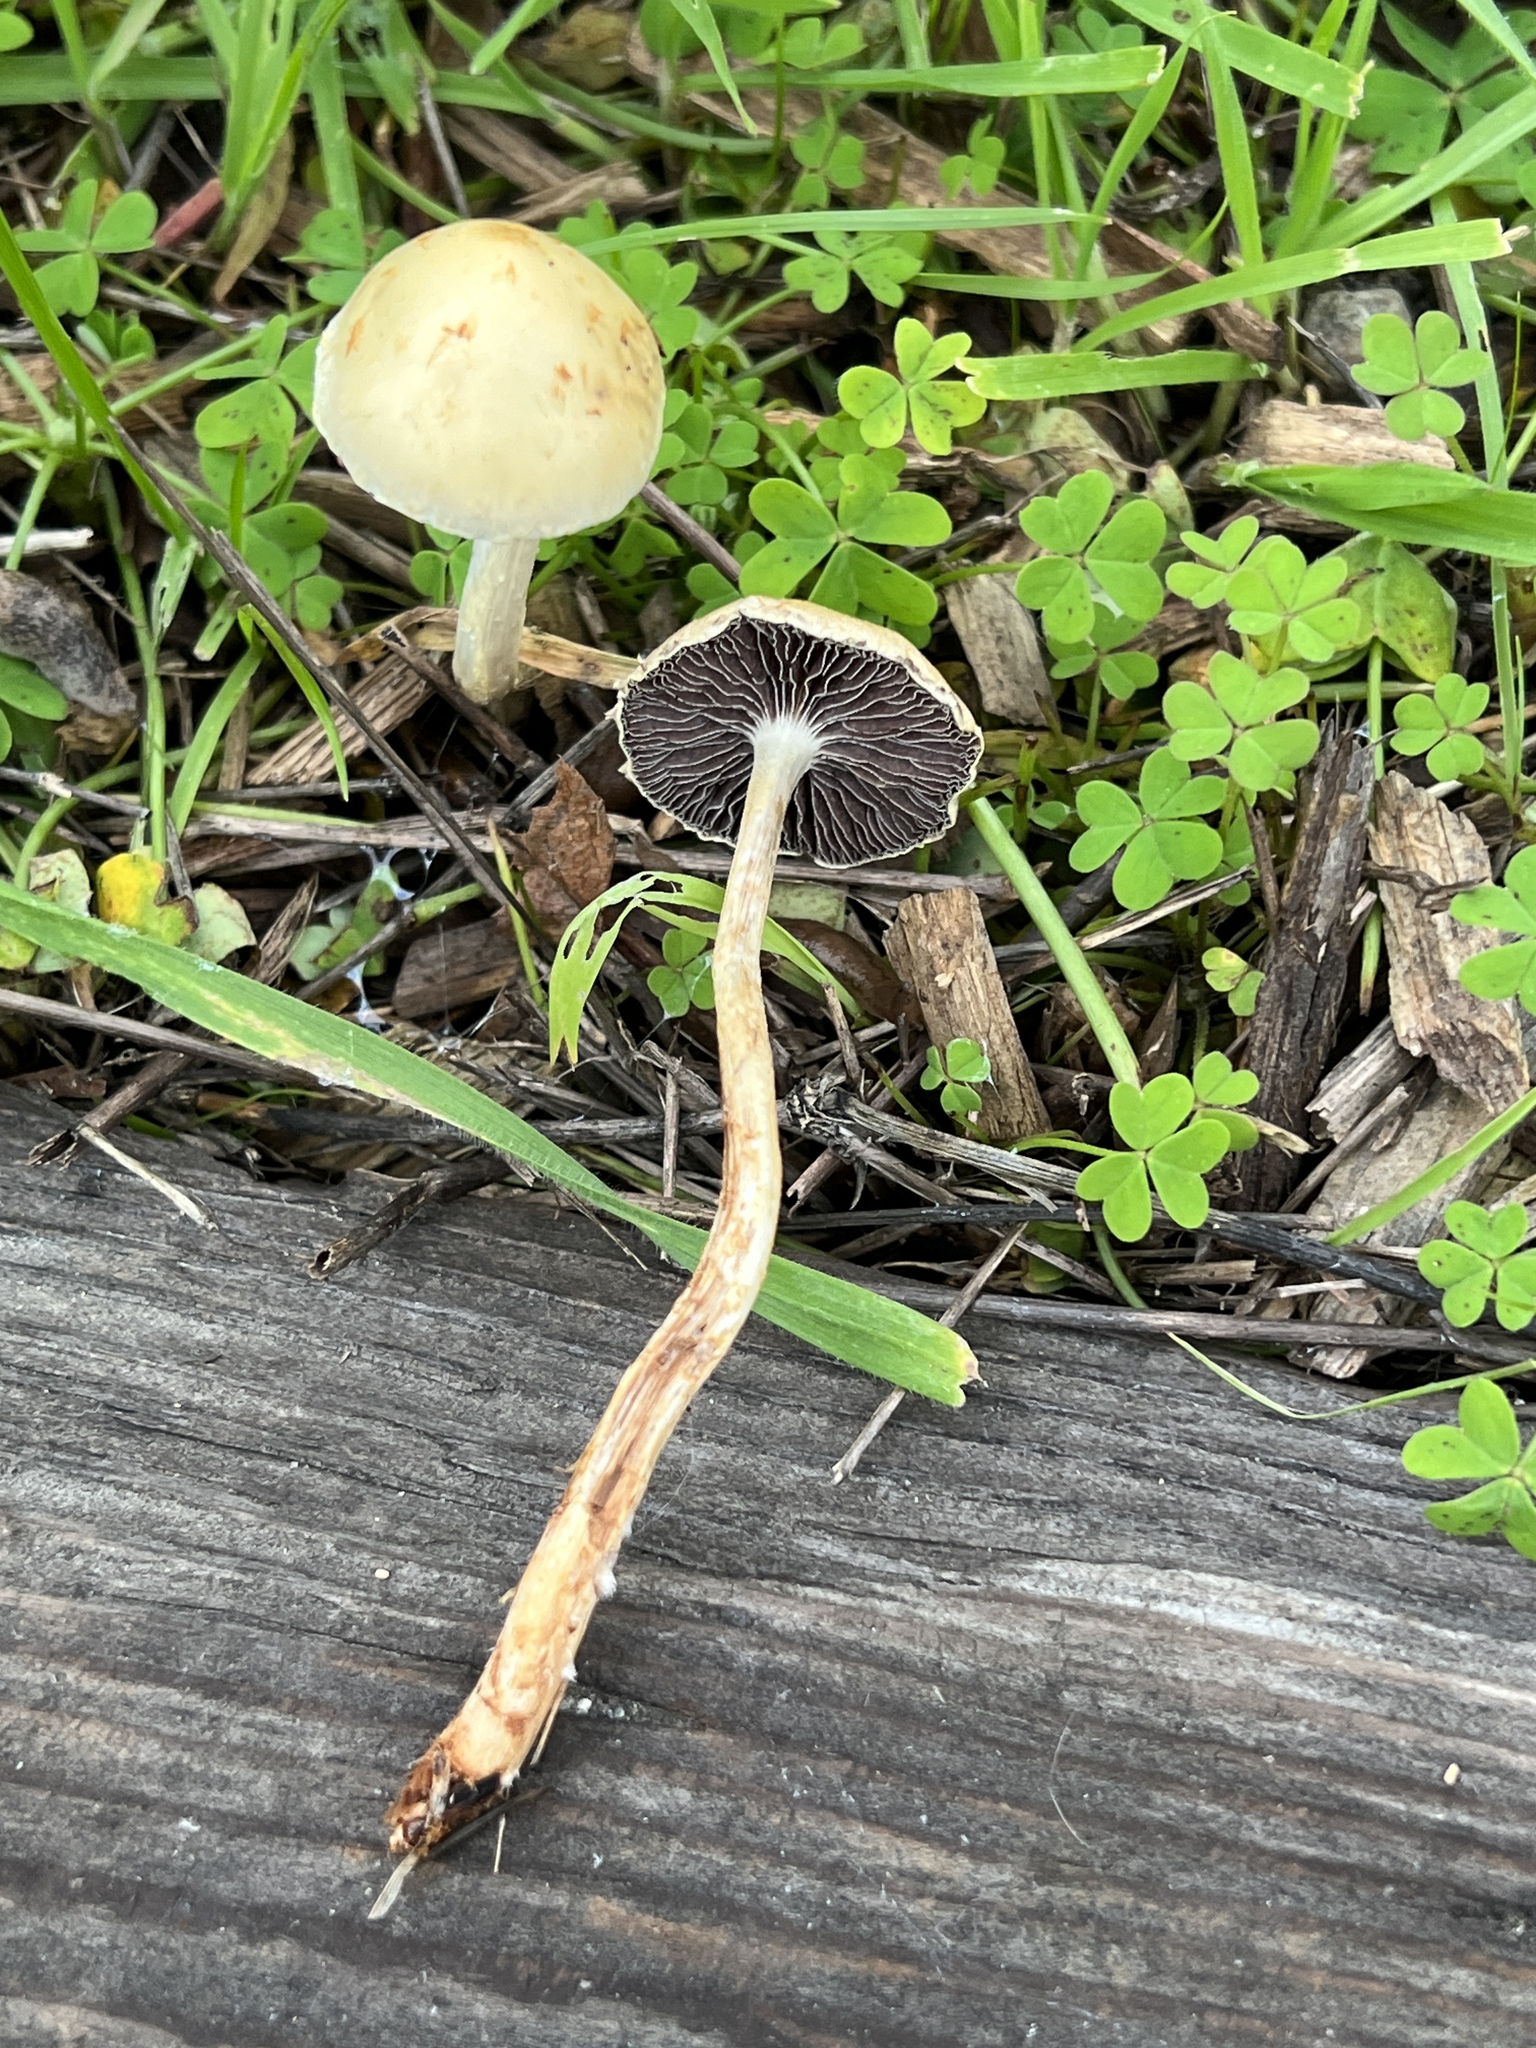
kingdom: Fungi
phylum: Basidiomycota
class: Agaricomycetes
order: Agaricales
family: Strophariaceae
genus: Leratiomyces
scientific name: Leratiomyces percevalii
